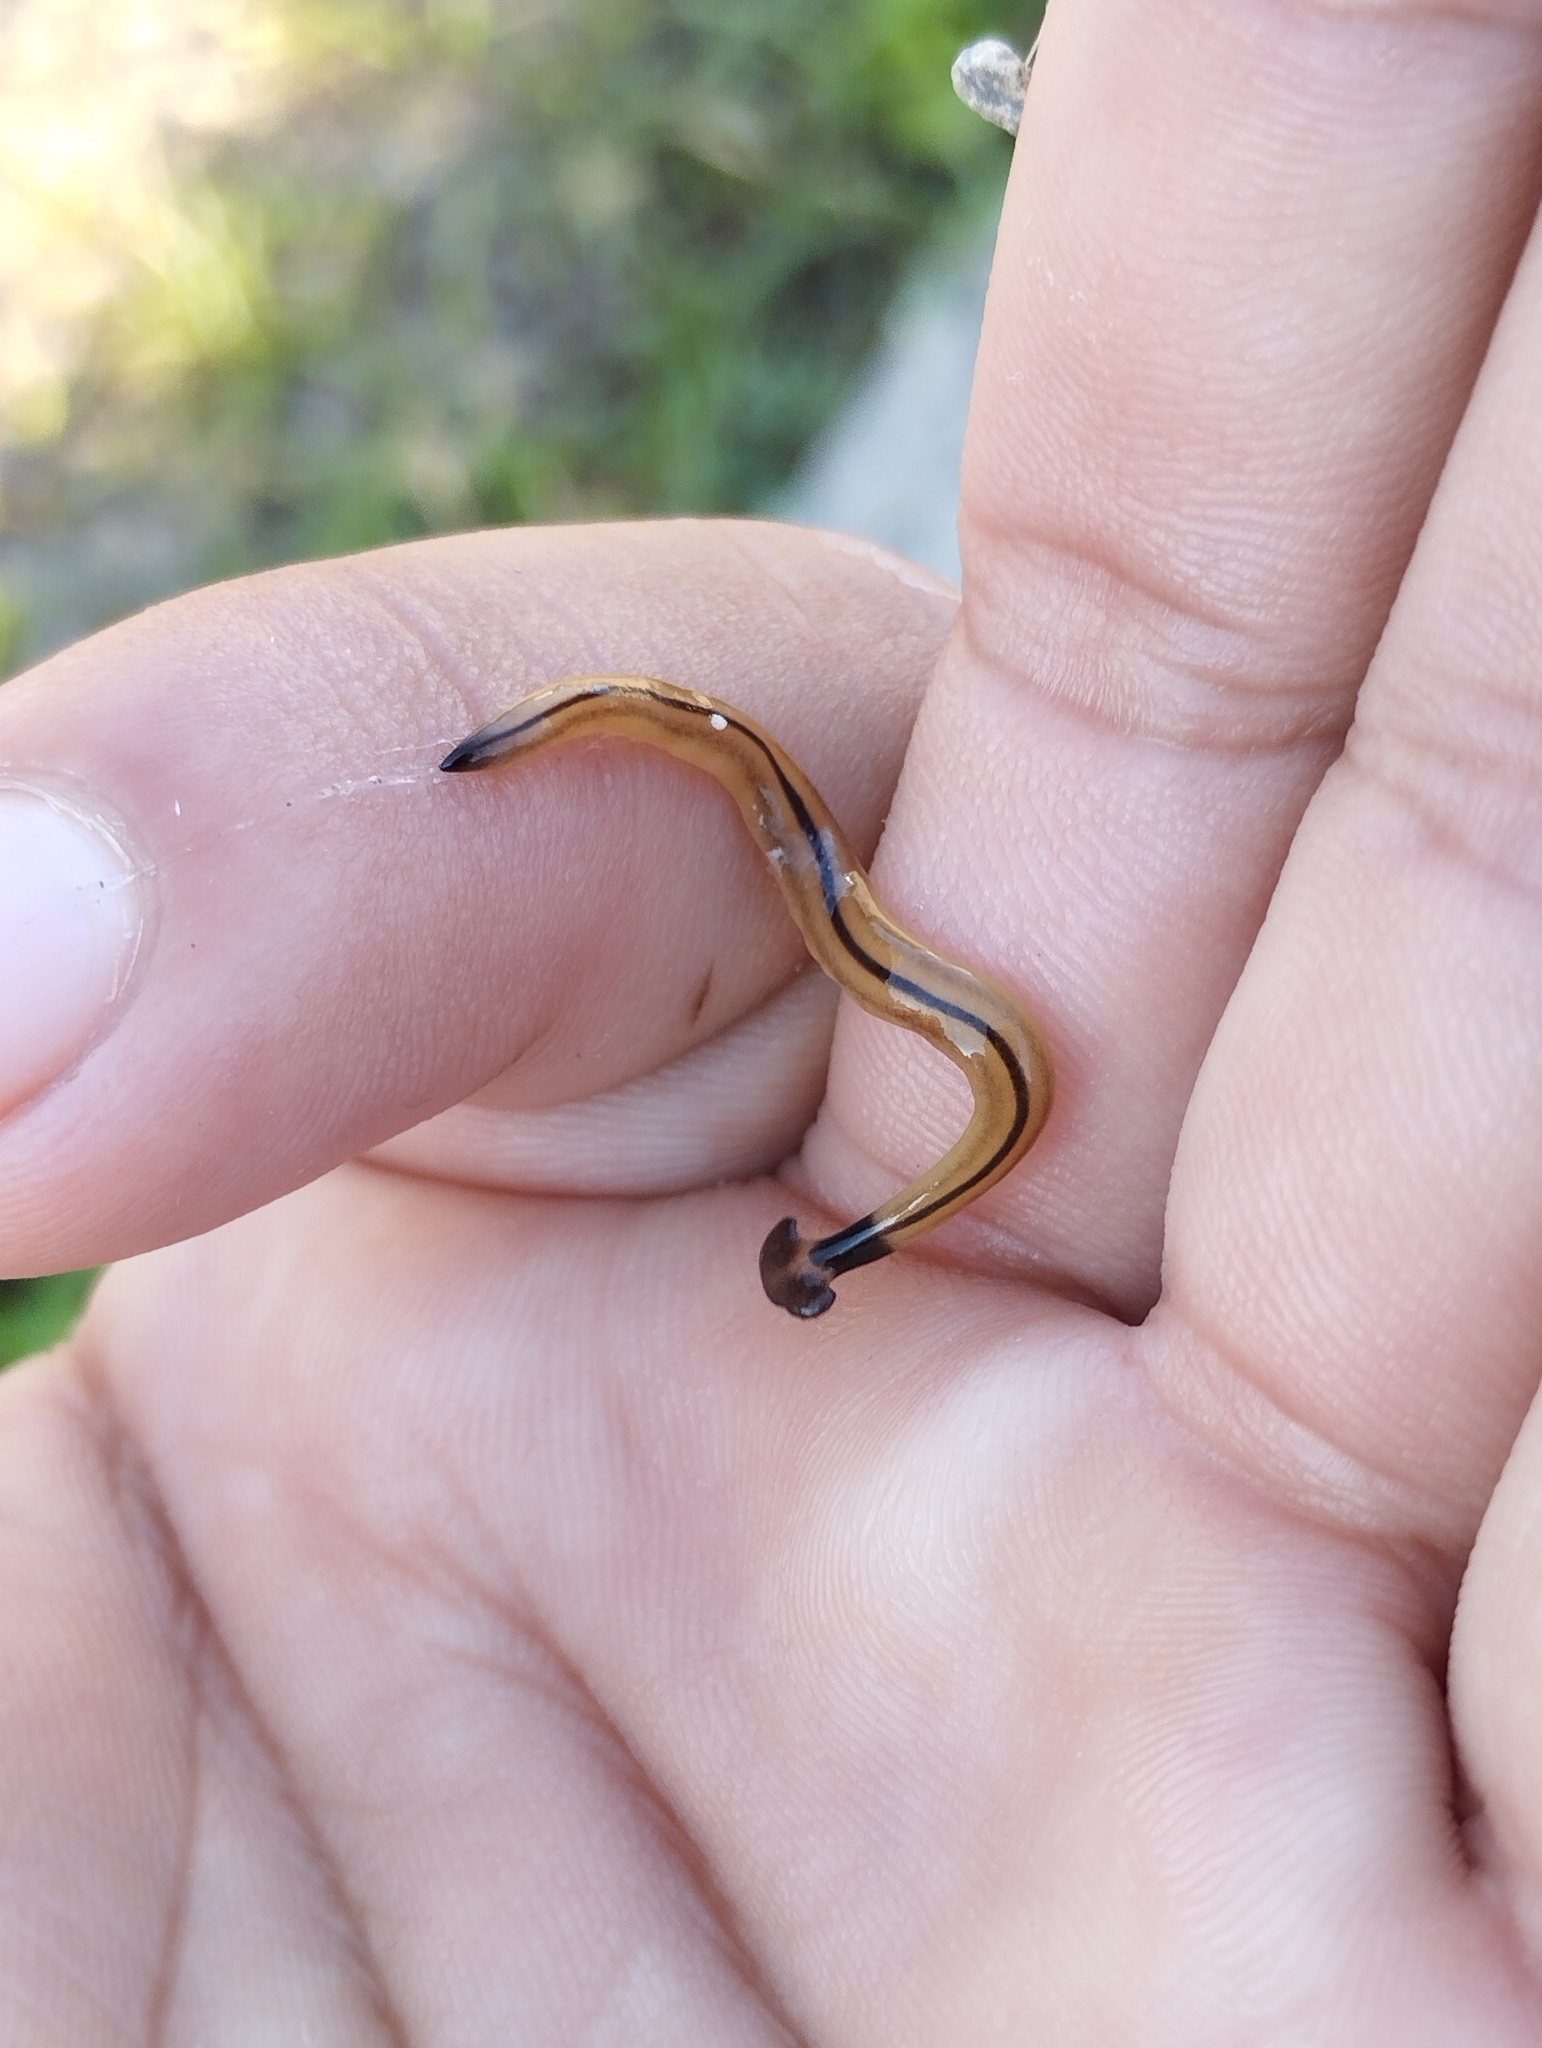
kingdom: Animalia
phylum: Platyhelminthes
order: Tricladida
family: Geoplanidae
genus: Bipalium
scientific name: Bipalium vagum
